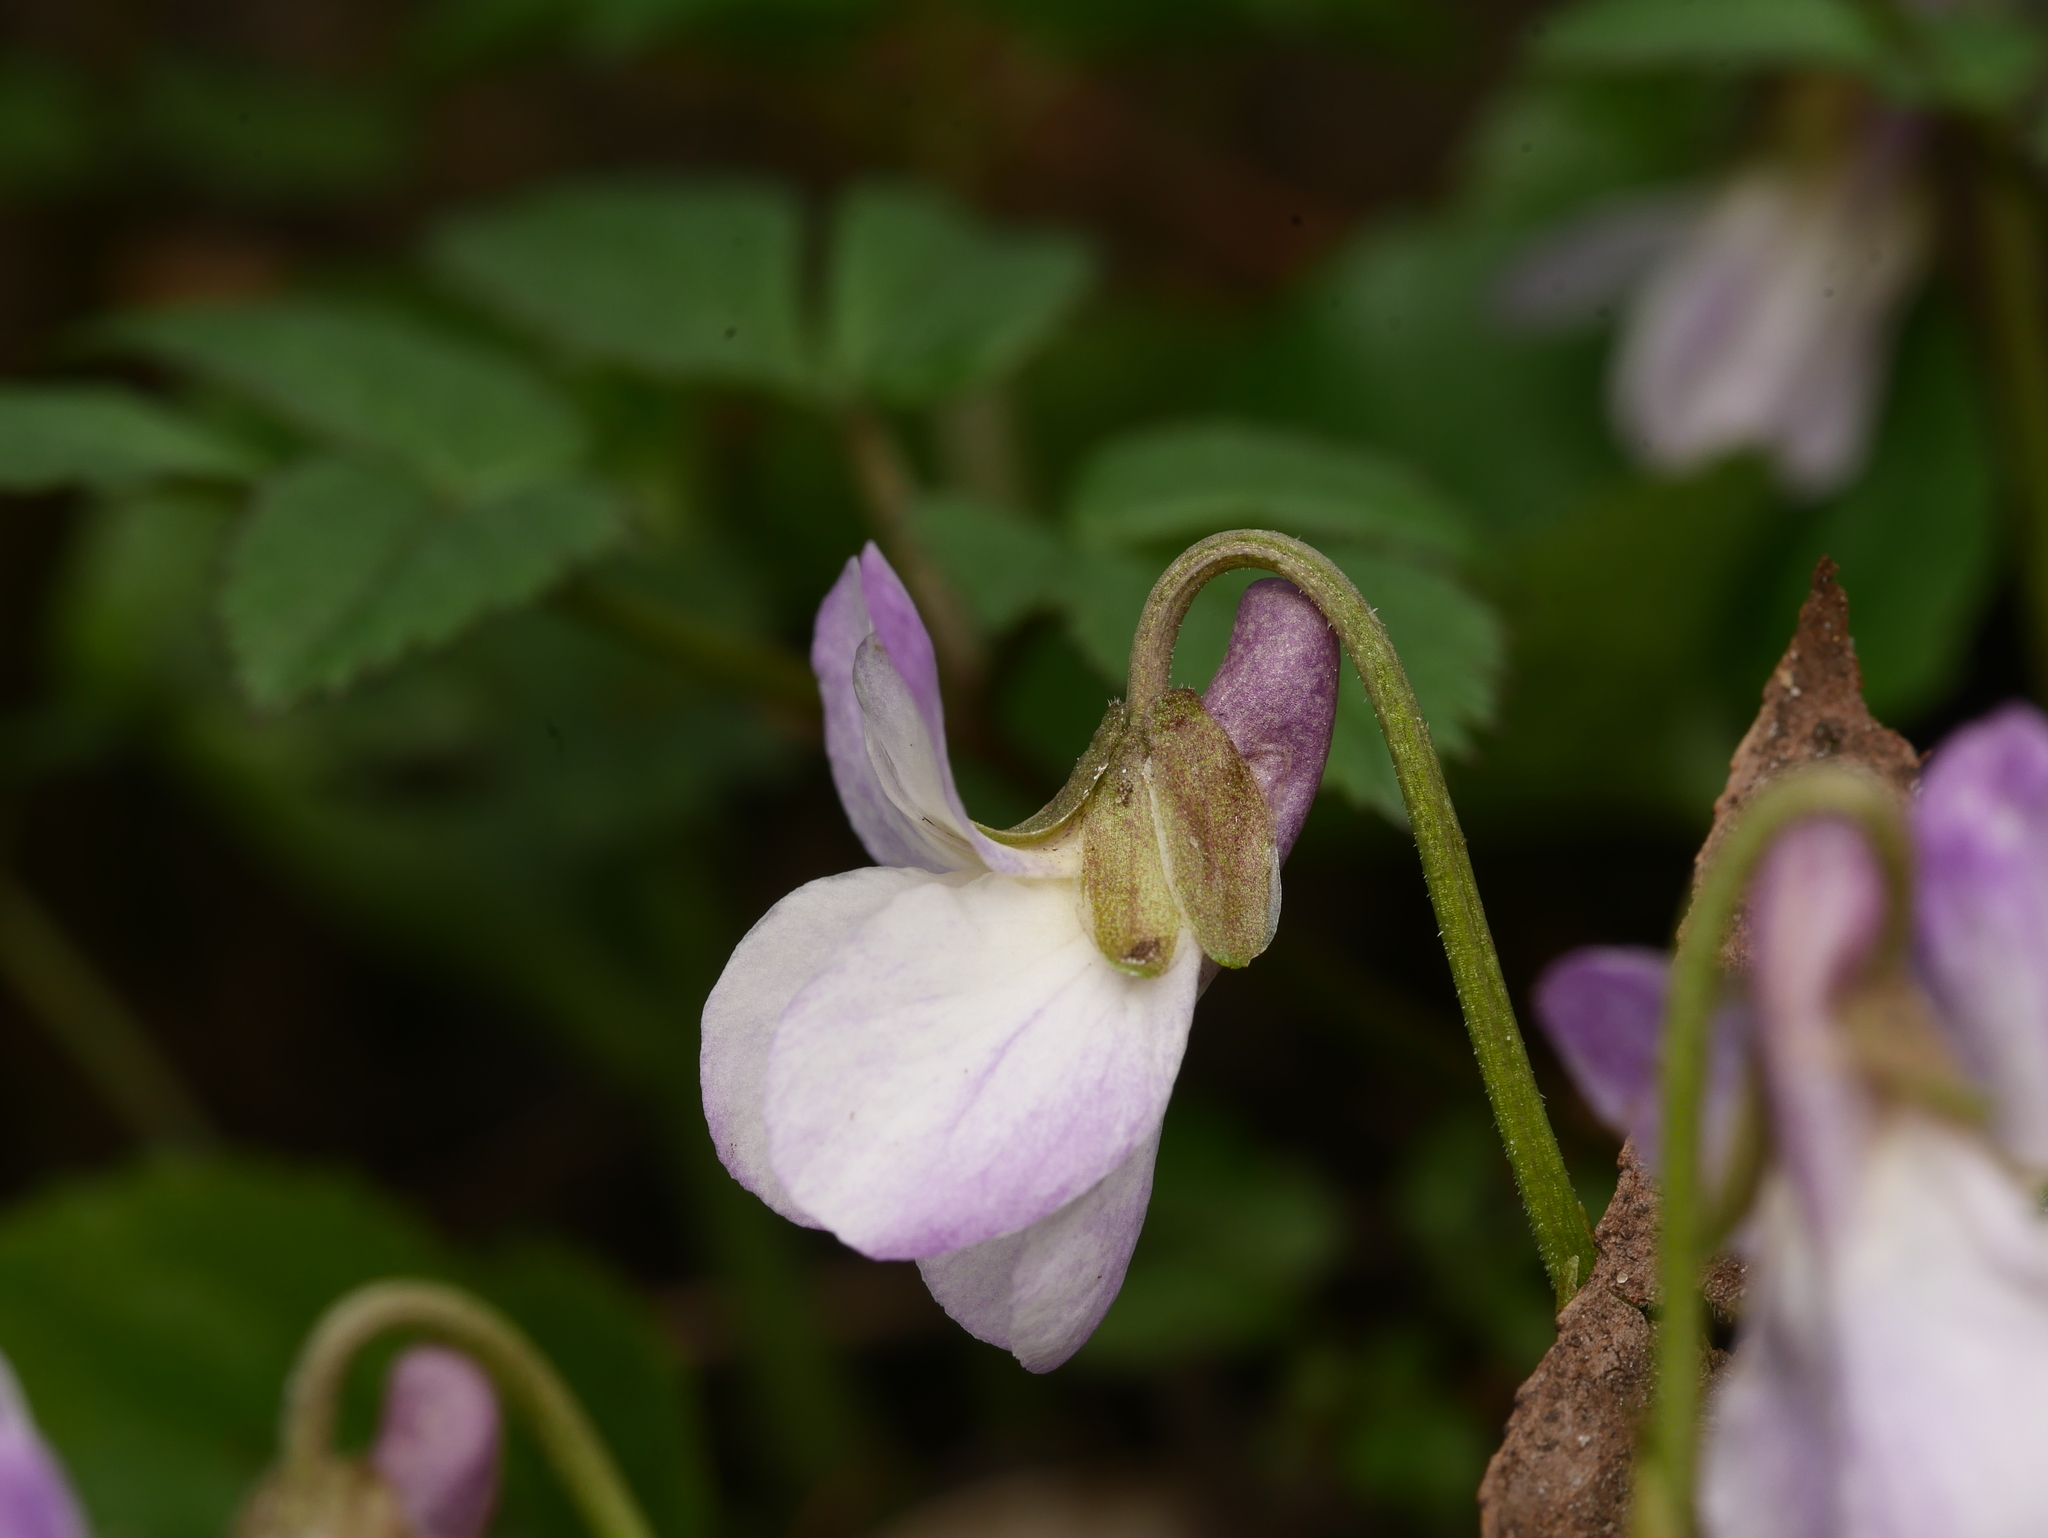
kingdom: Plantae
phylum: Tracheophyta
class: Magnoliopsida
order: Malpighiales
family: Violaceae
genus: Viola
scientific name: Viola odorata
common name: Sweet violet
